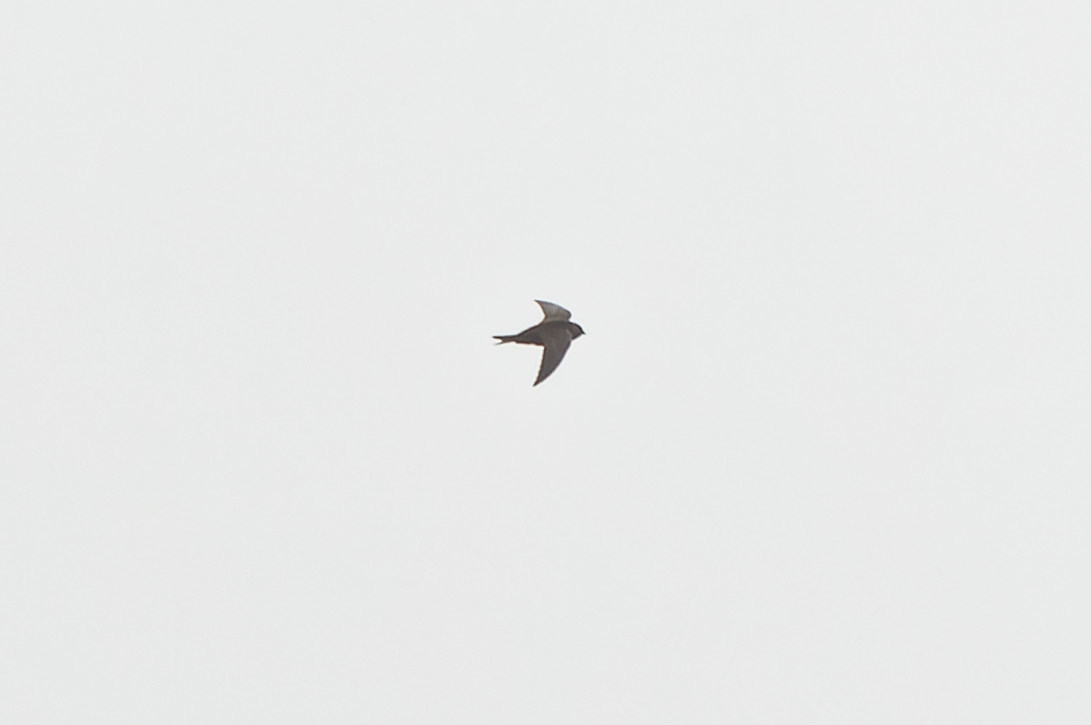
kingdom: Animalia
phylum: Chordata
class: Aves
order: Apodiformes
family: Apodidae
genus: Cypseloides
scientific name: Cypseloides niger
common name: Black swift
